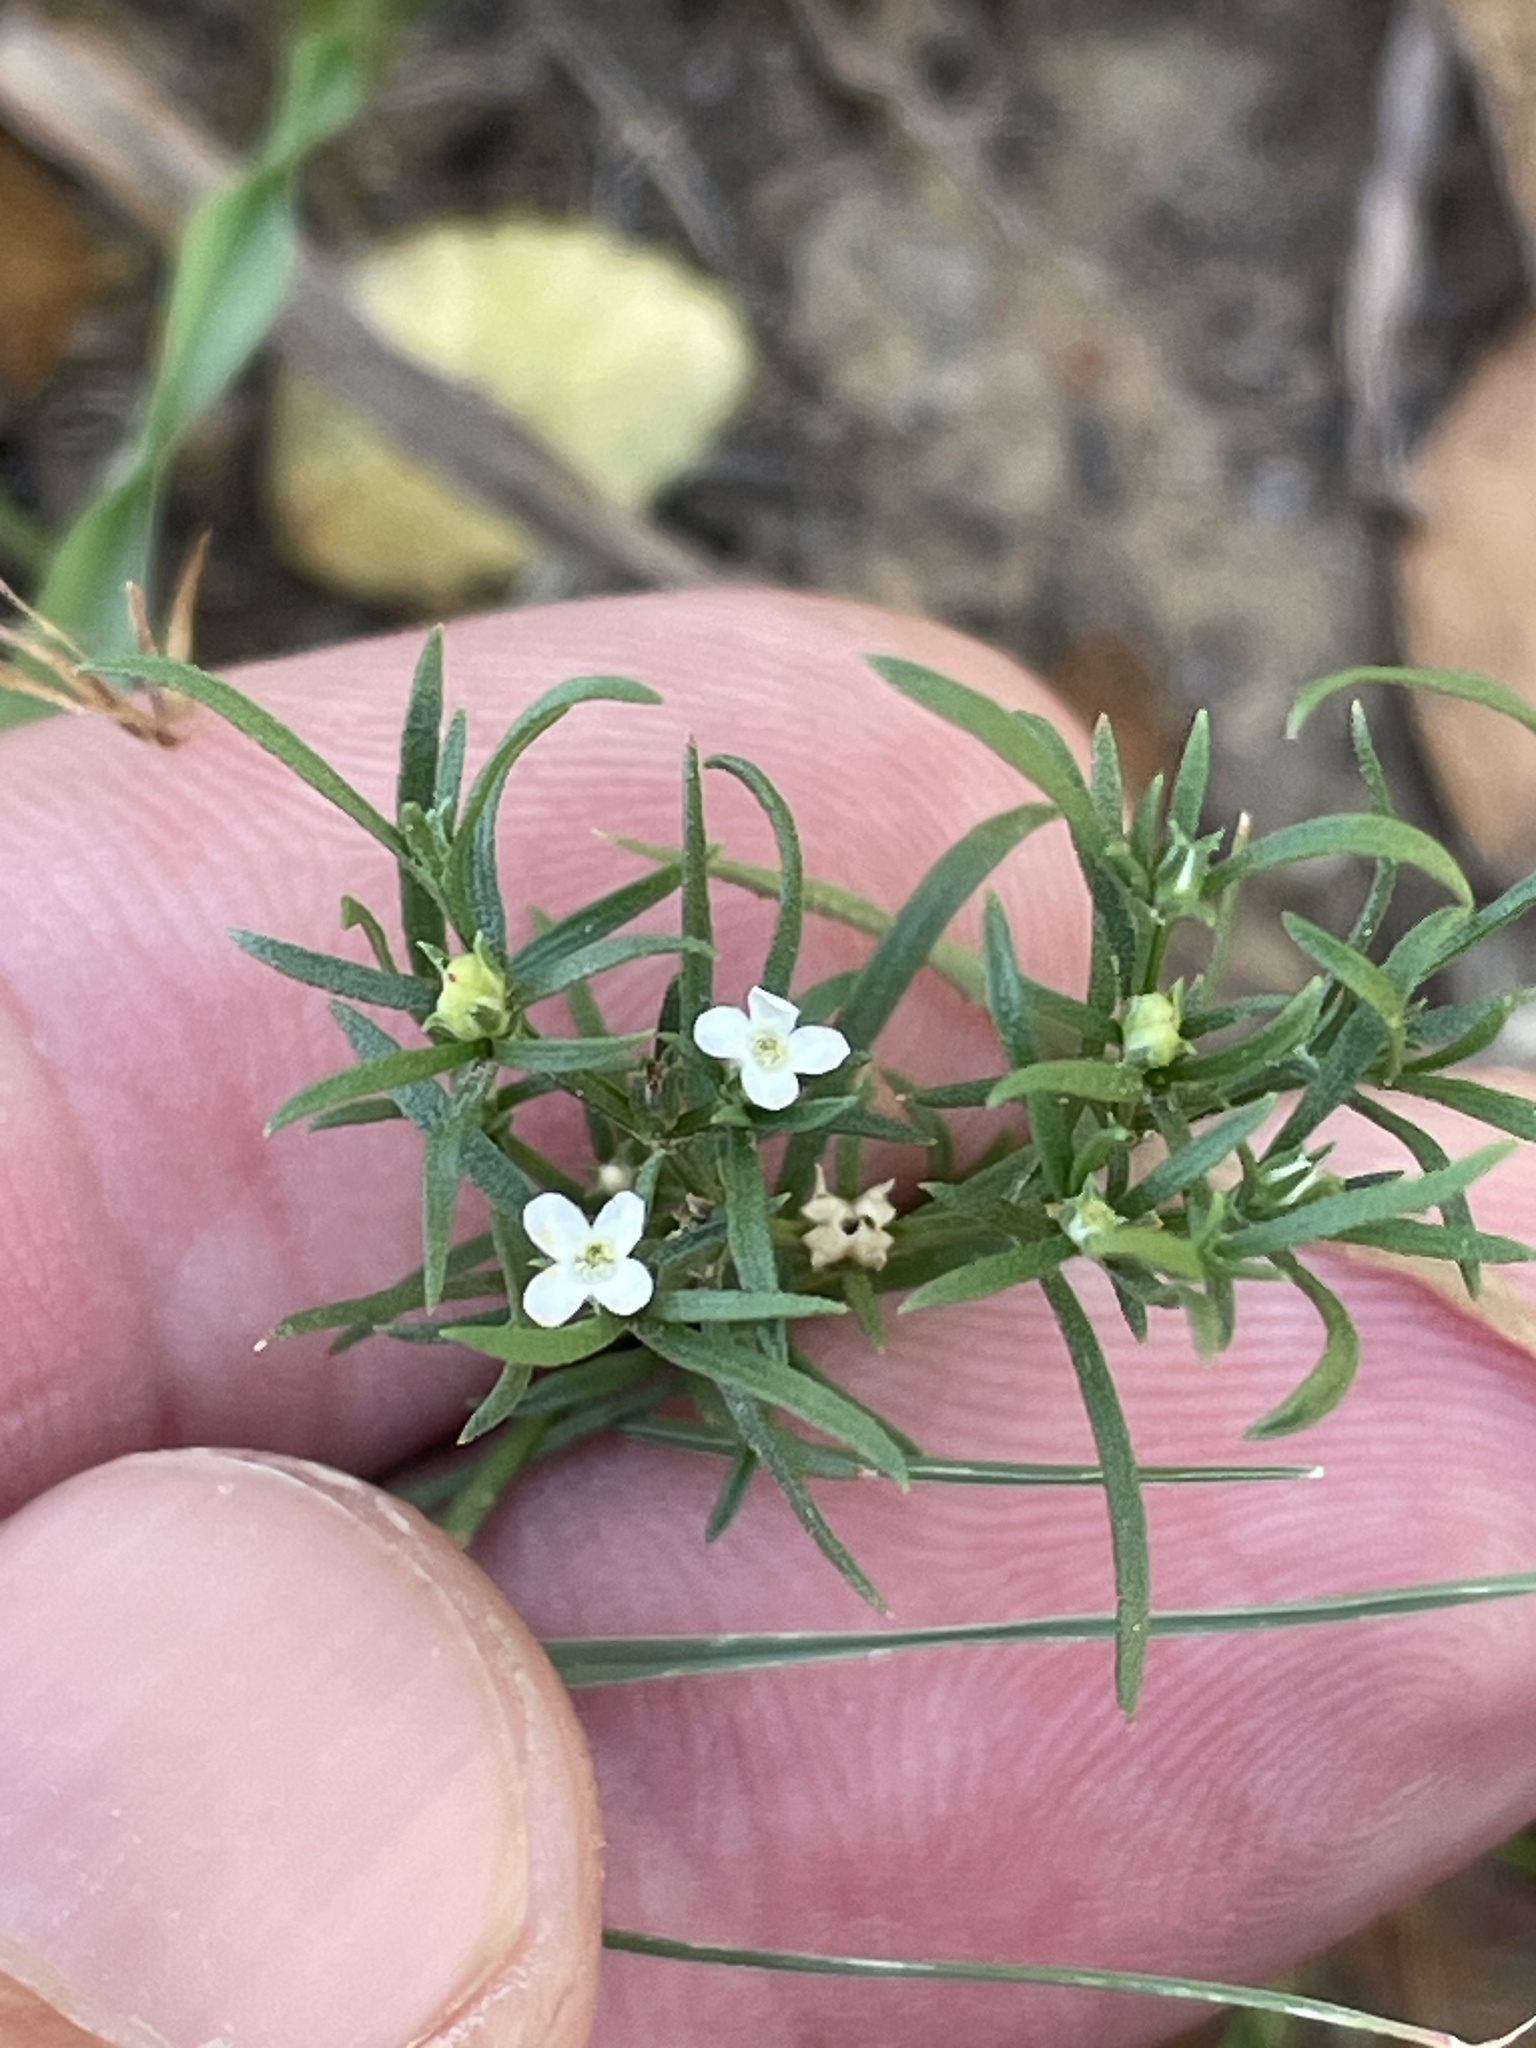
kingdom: Plantae
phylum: Tracheophyta
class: Magnoliopsida
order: Lamiales
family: Tetrachondraceae
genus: Polypremum
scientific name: Polypremum procumbens
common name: Juniper-leaf
